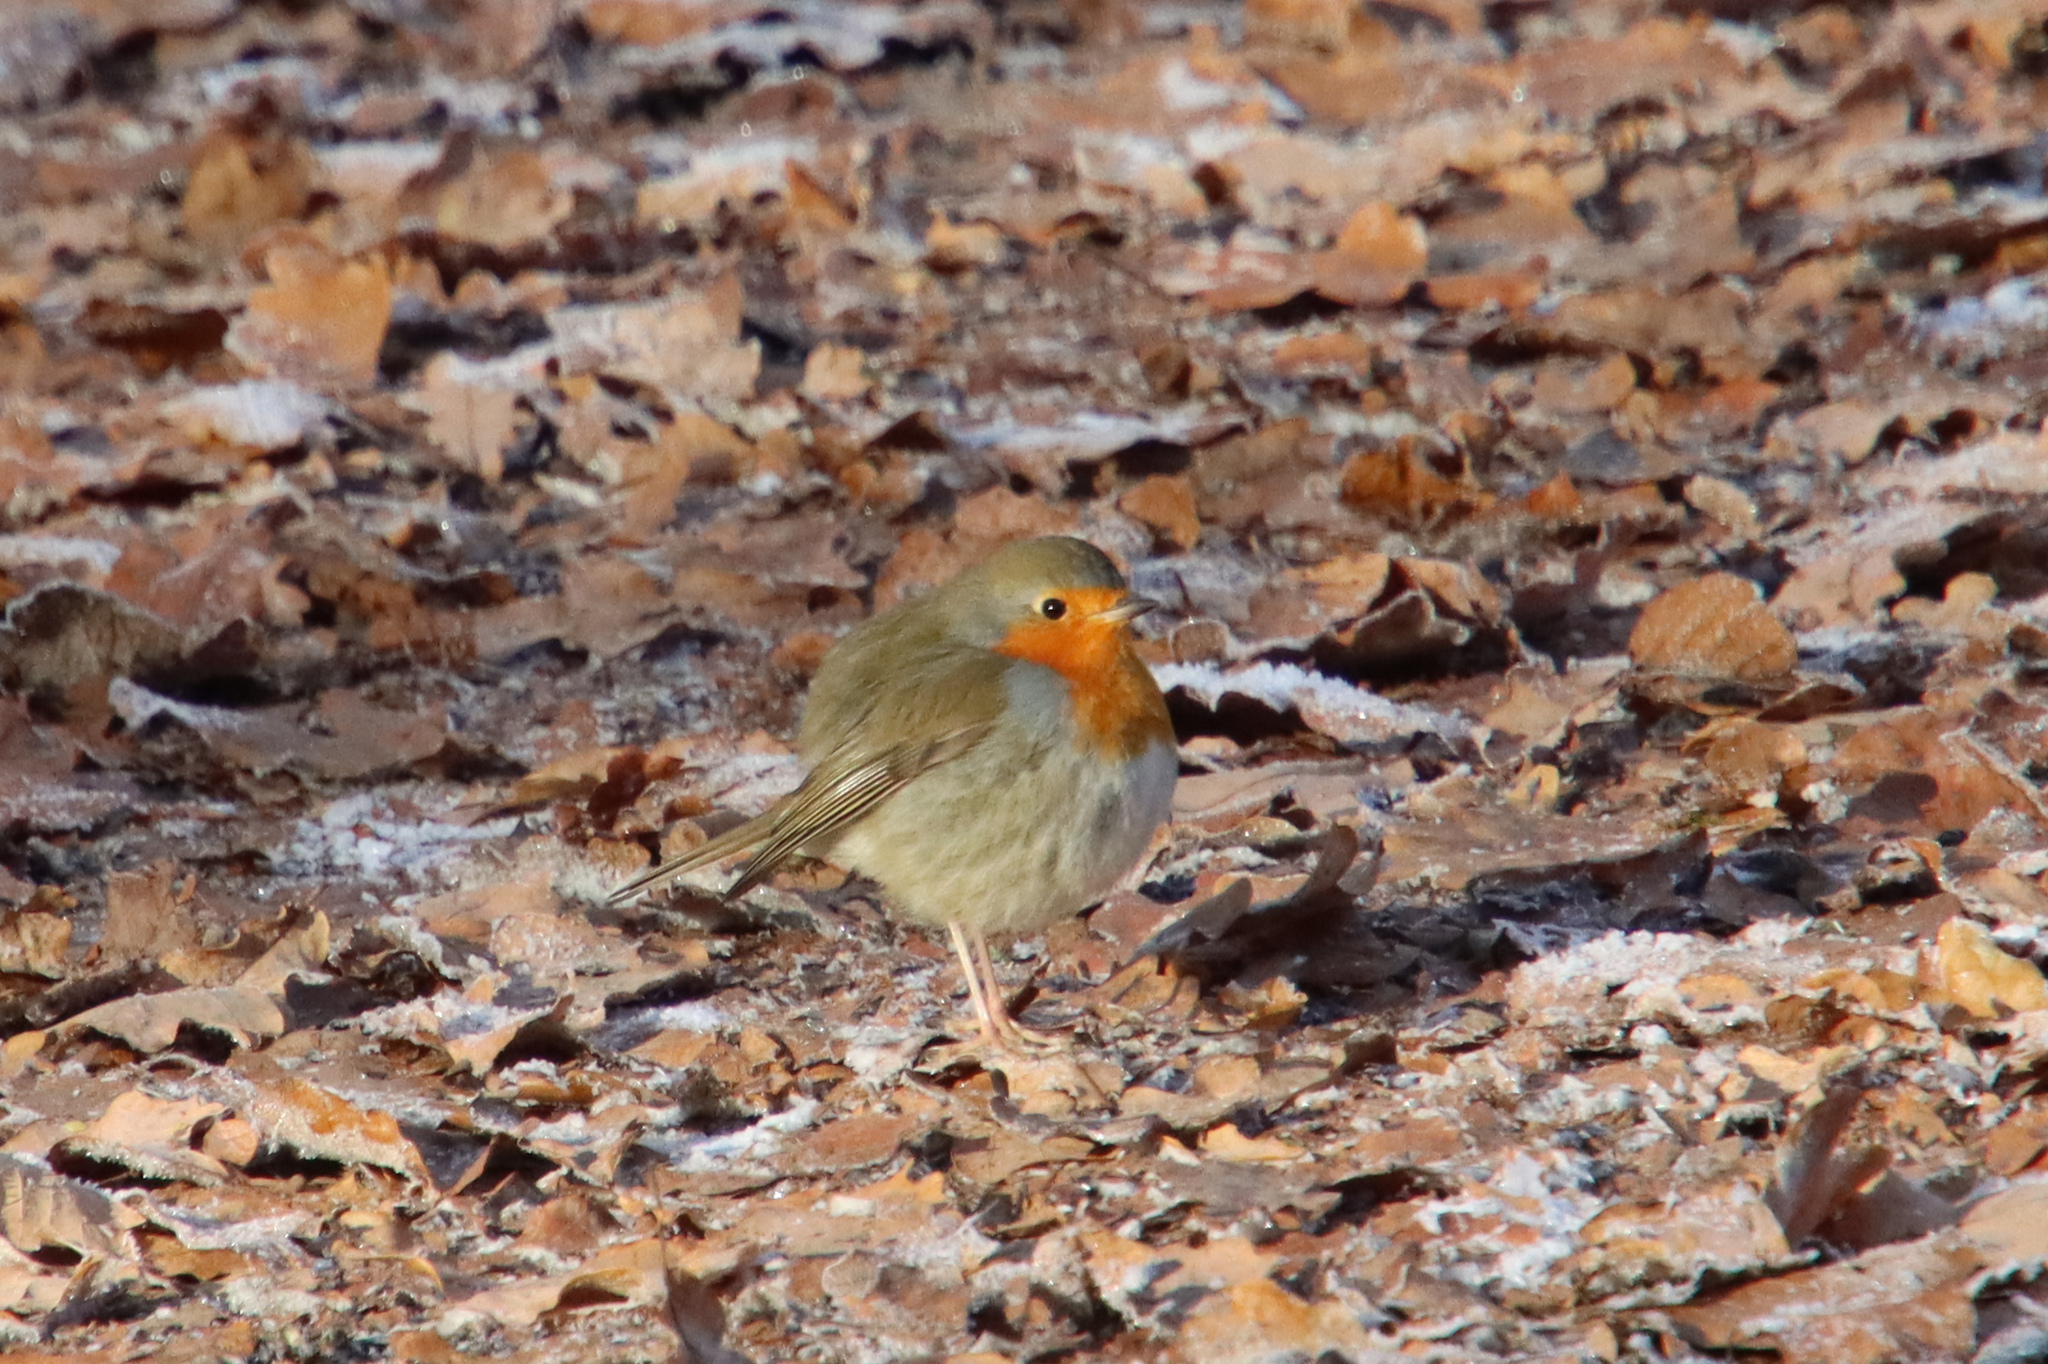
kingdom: Animalia
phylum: Chordata
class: Aves
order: Passeriformes
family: Muscicapidae
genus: Erithacus
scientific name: Erithacus rubecula
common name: European robin
